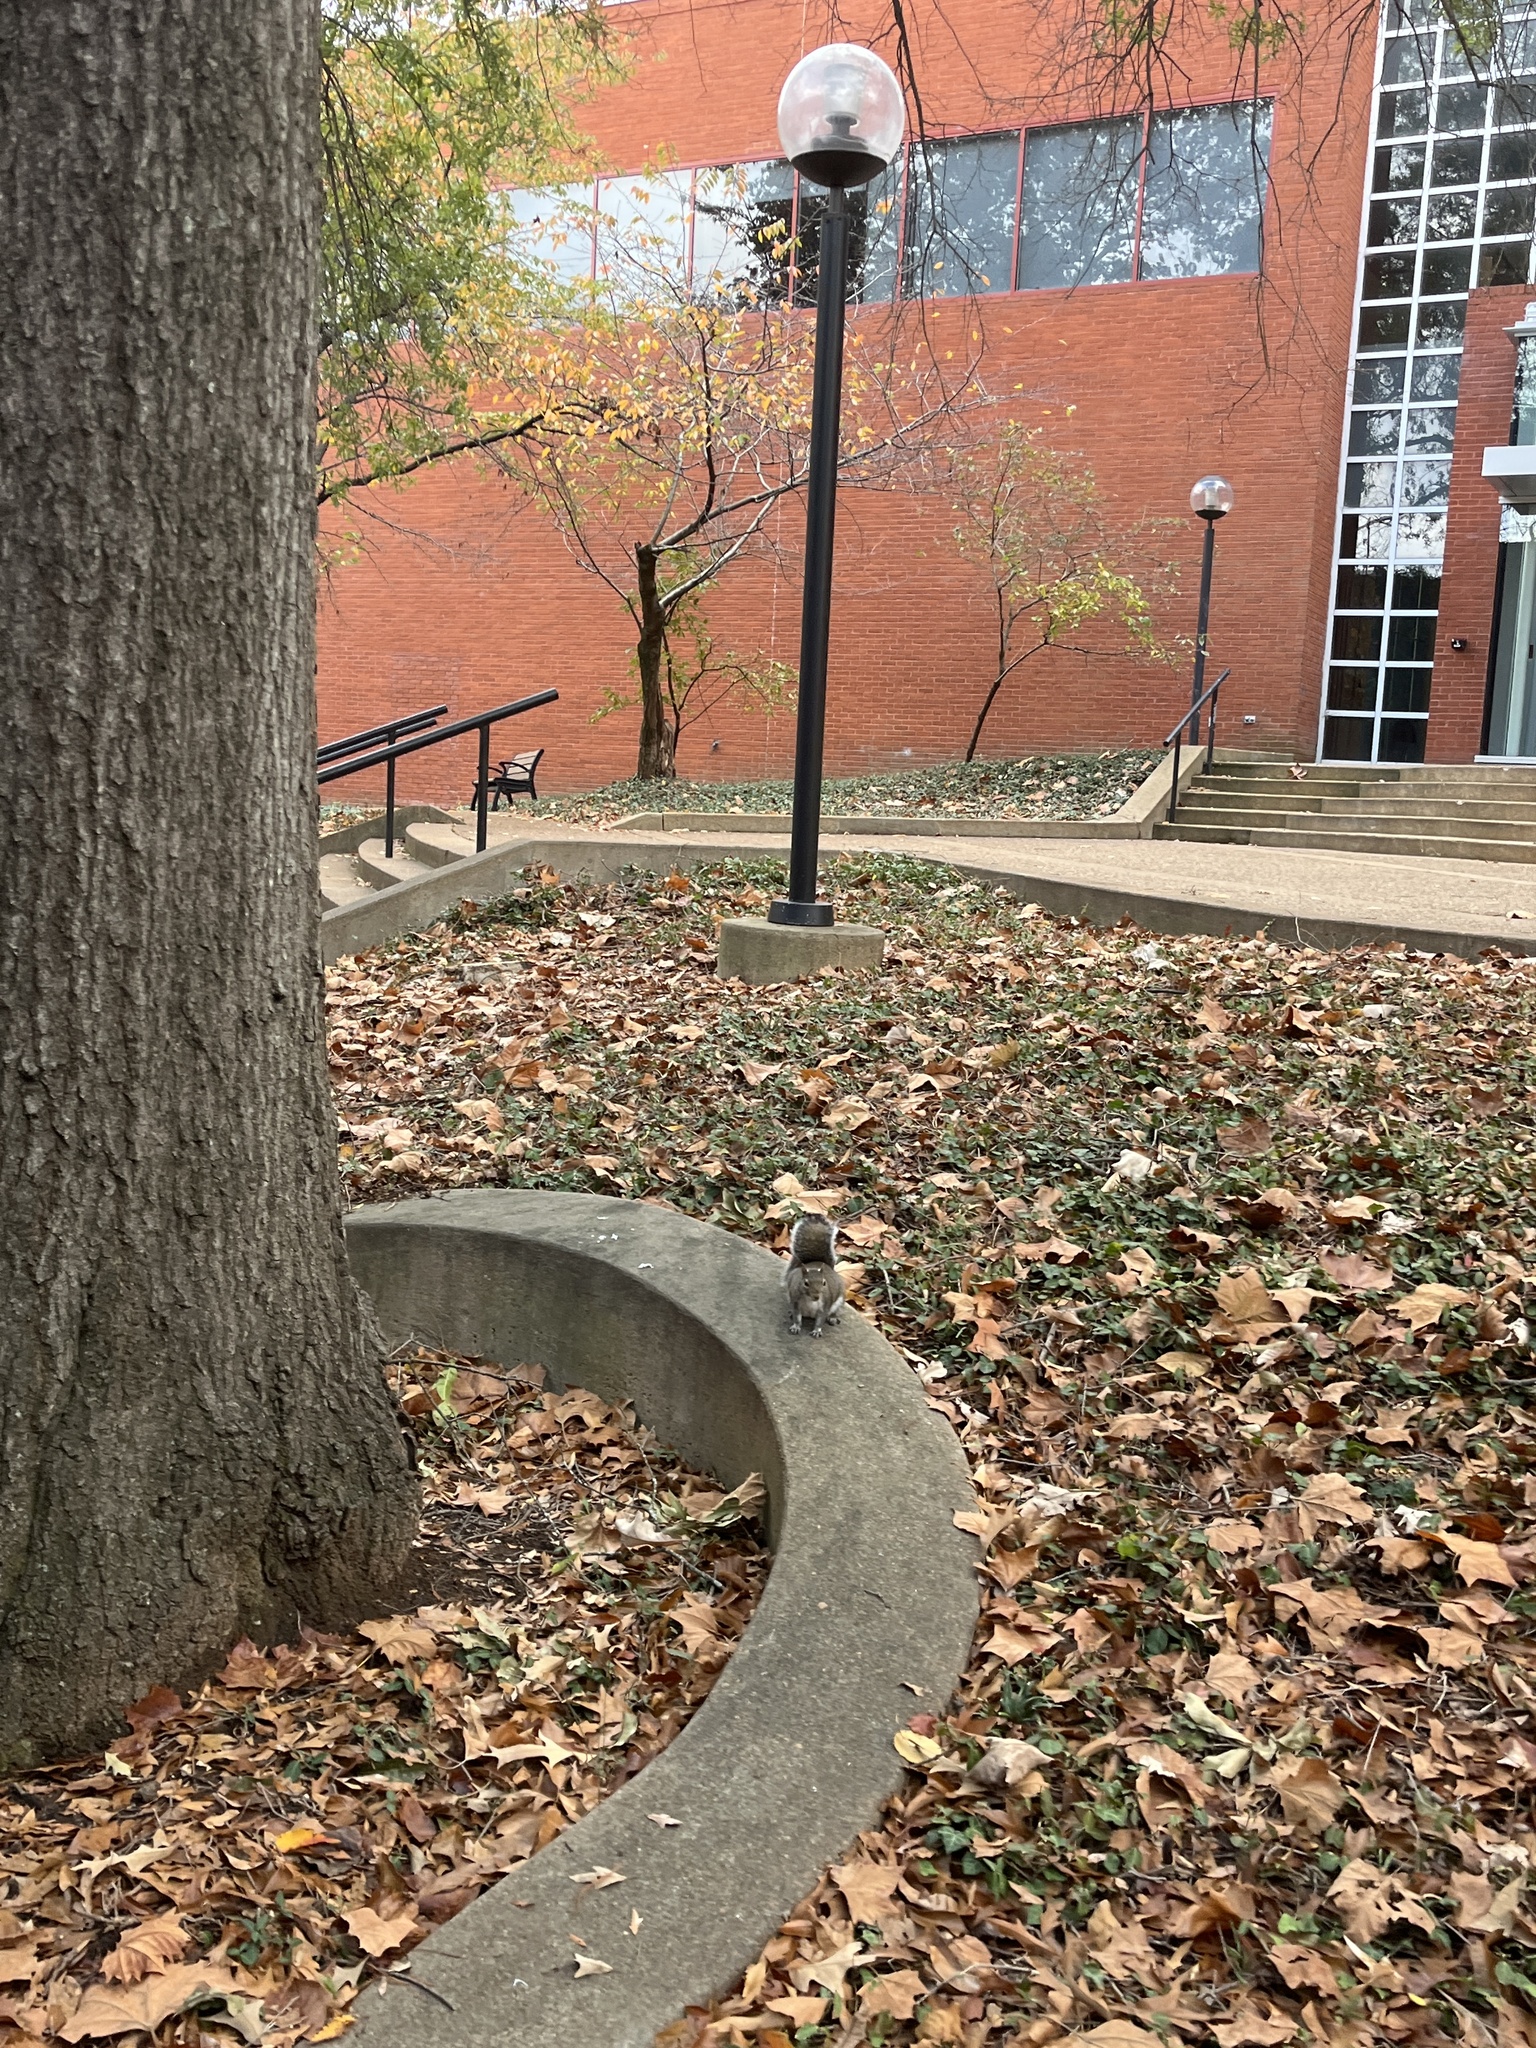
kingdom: Animalia
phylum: Chordata
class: Mammalia
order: Rodentia
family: Sciuridae
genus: Sciurus
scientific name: Sciurus carolinensis
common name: Eastern gray squirrel
